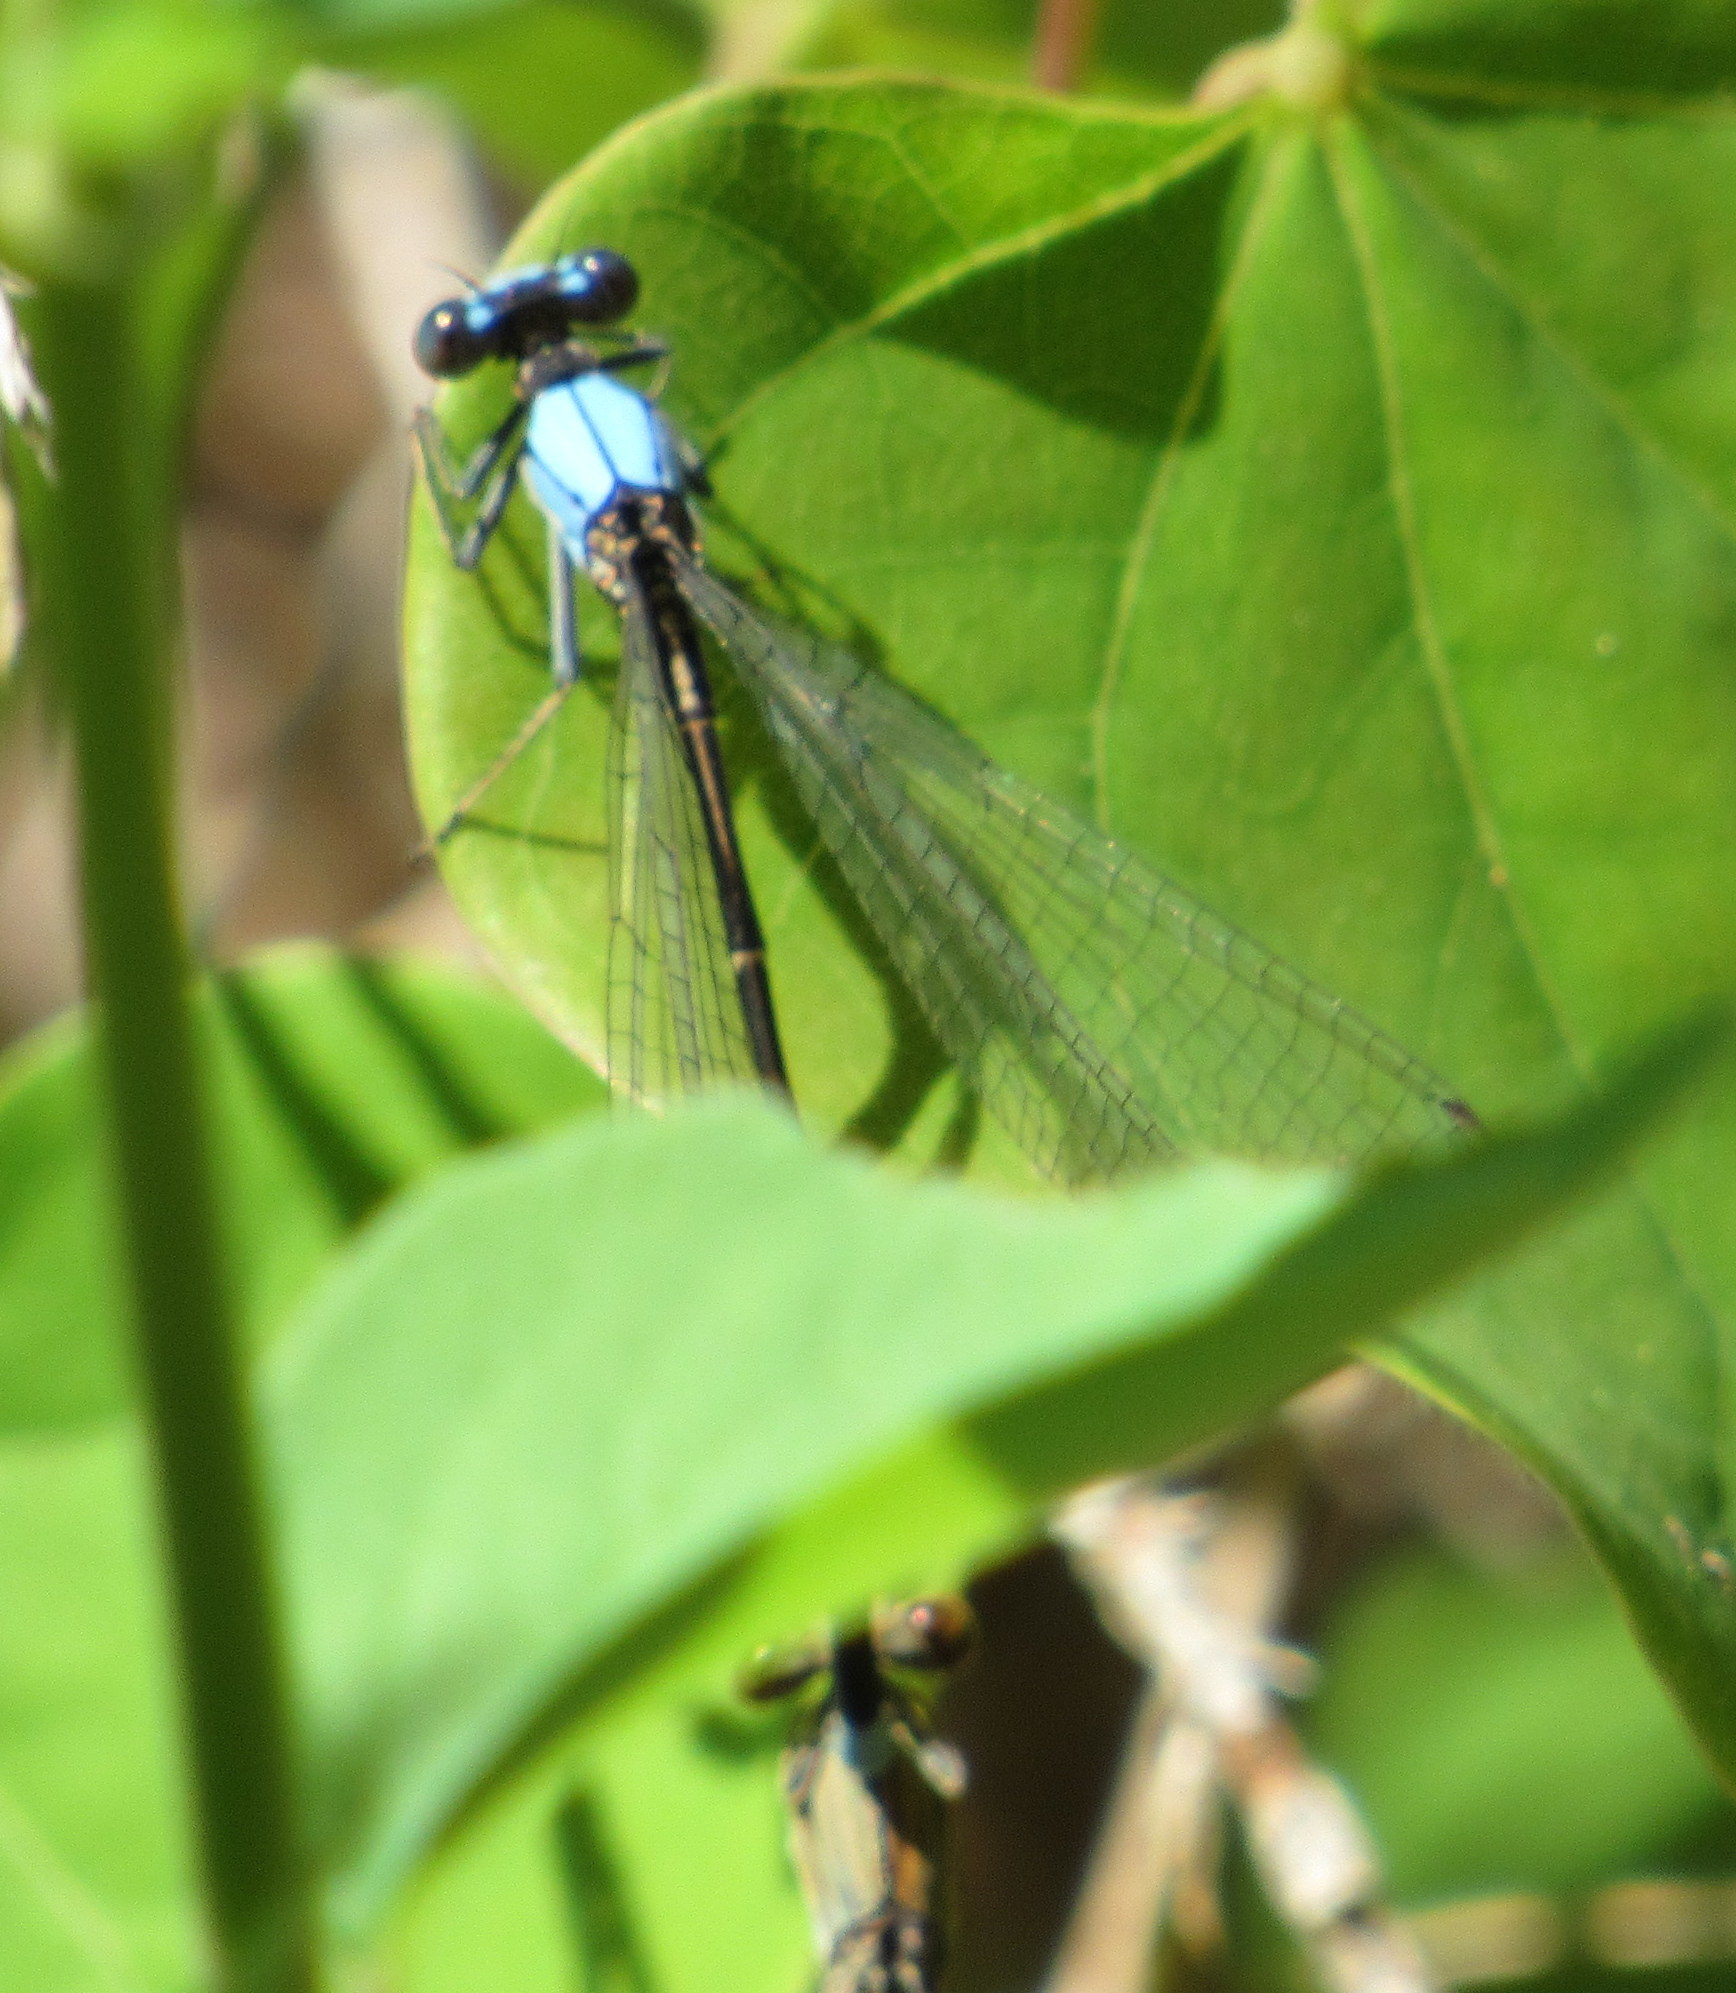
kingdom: Animalia
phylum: Arthropoda
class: Insecta
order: Odonata
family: Coenagrionidae
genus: Argia
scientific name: Argia apicalis
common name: Blue-fronted dancer
